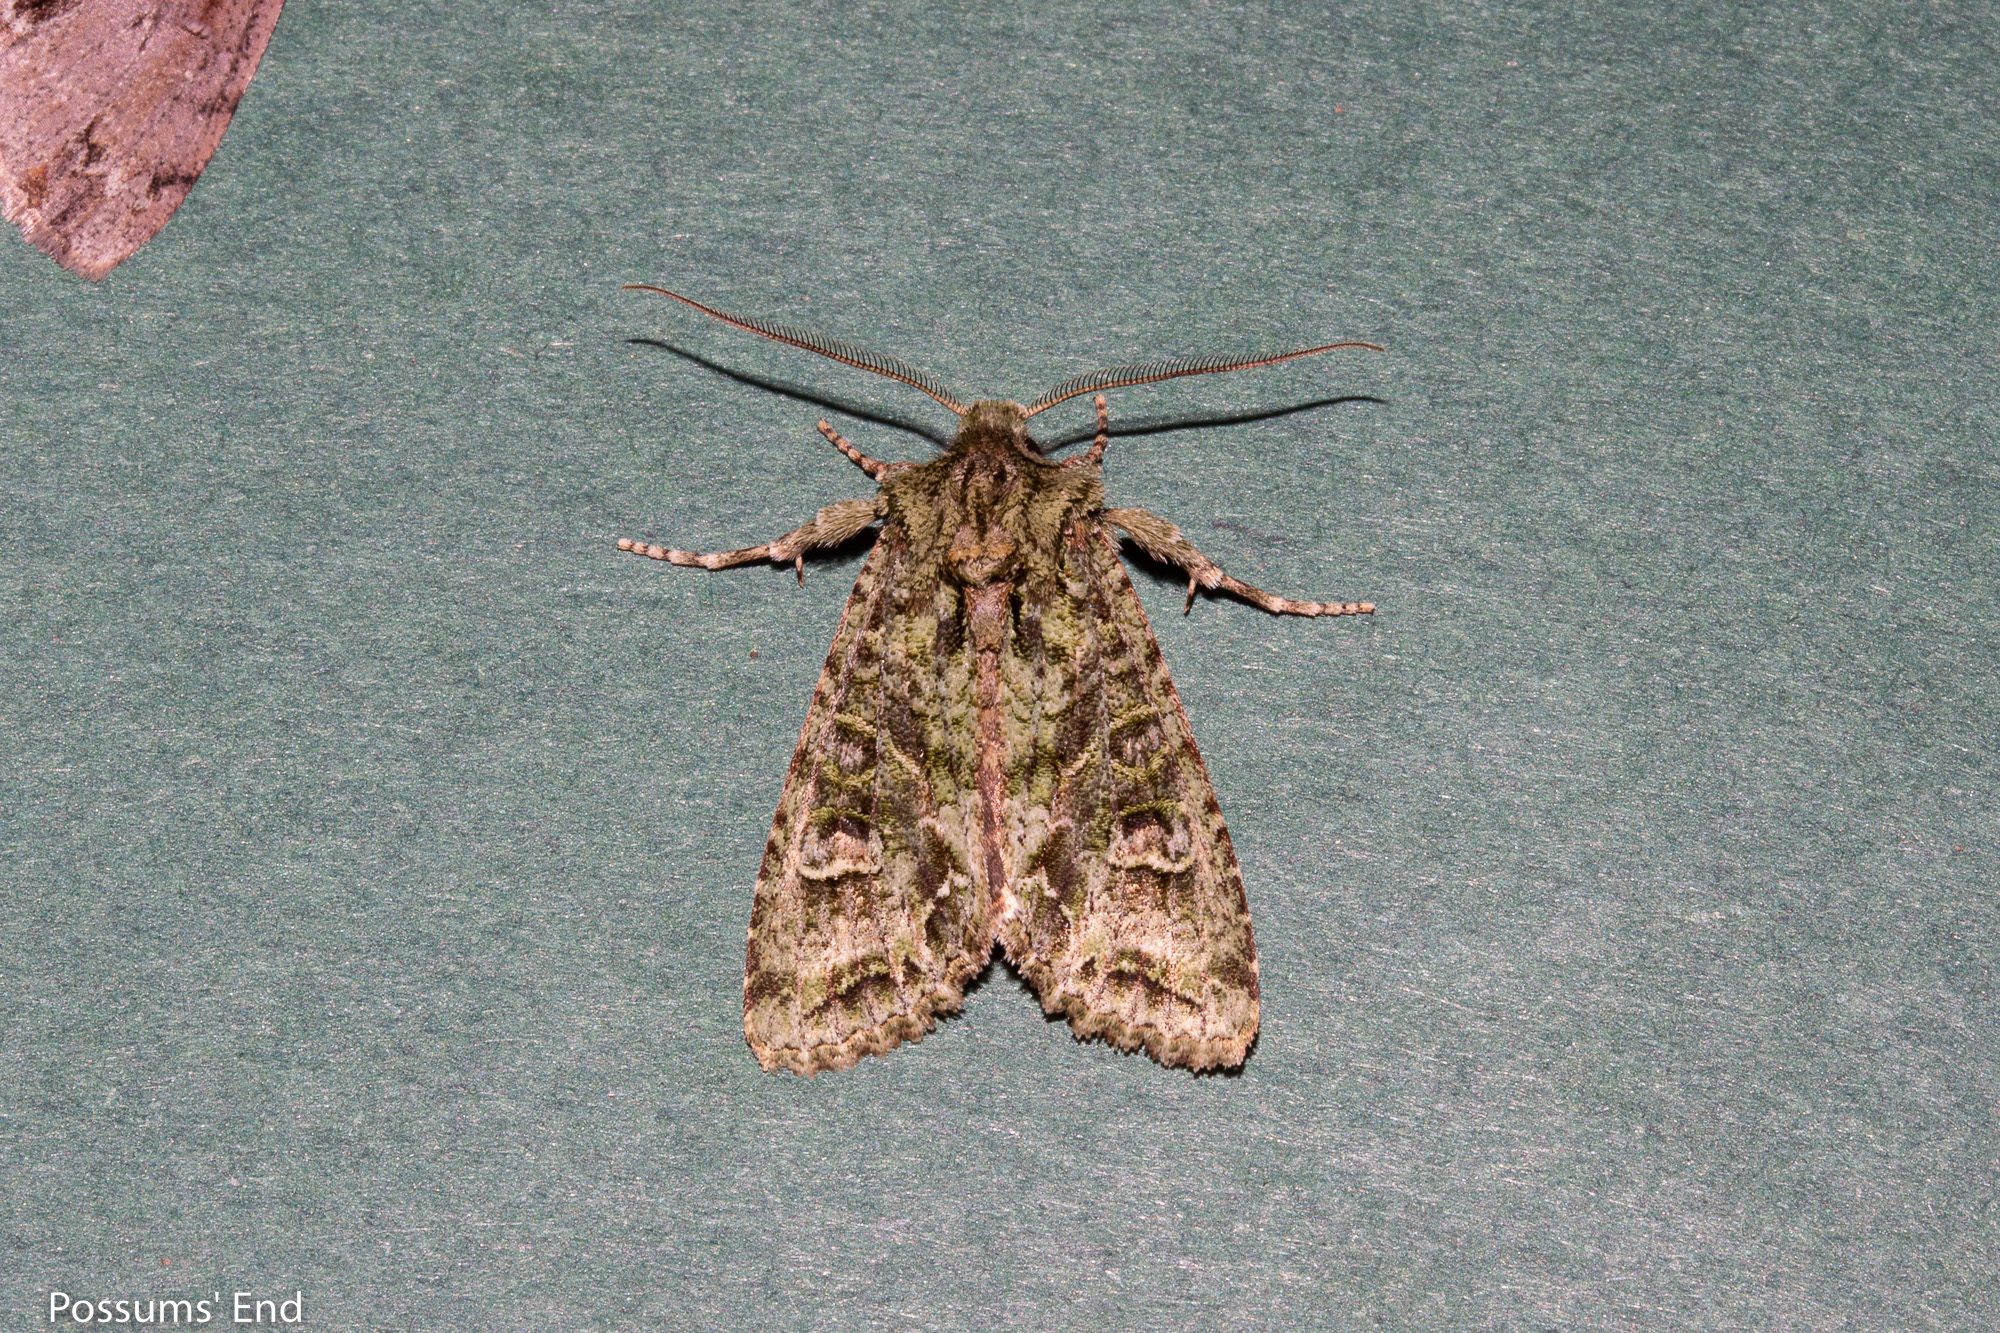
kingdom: Animalia
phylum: Arthropoda
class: Insecta
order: Lepidoptera
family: Noctuidae
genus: Ichneutica
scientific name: Ichneutica
